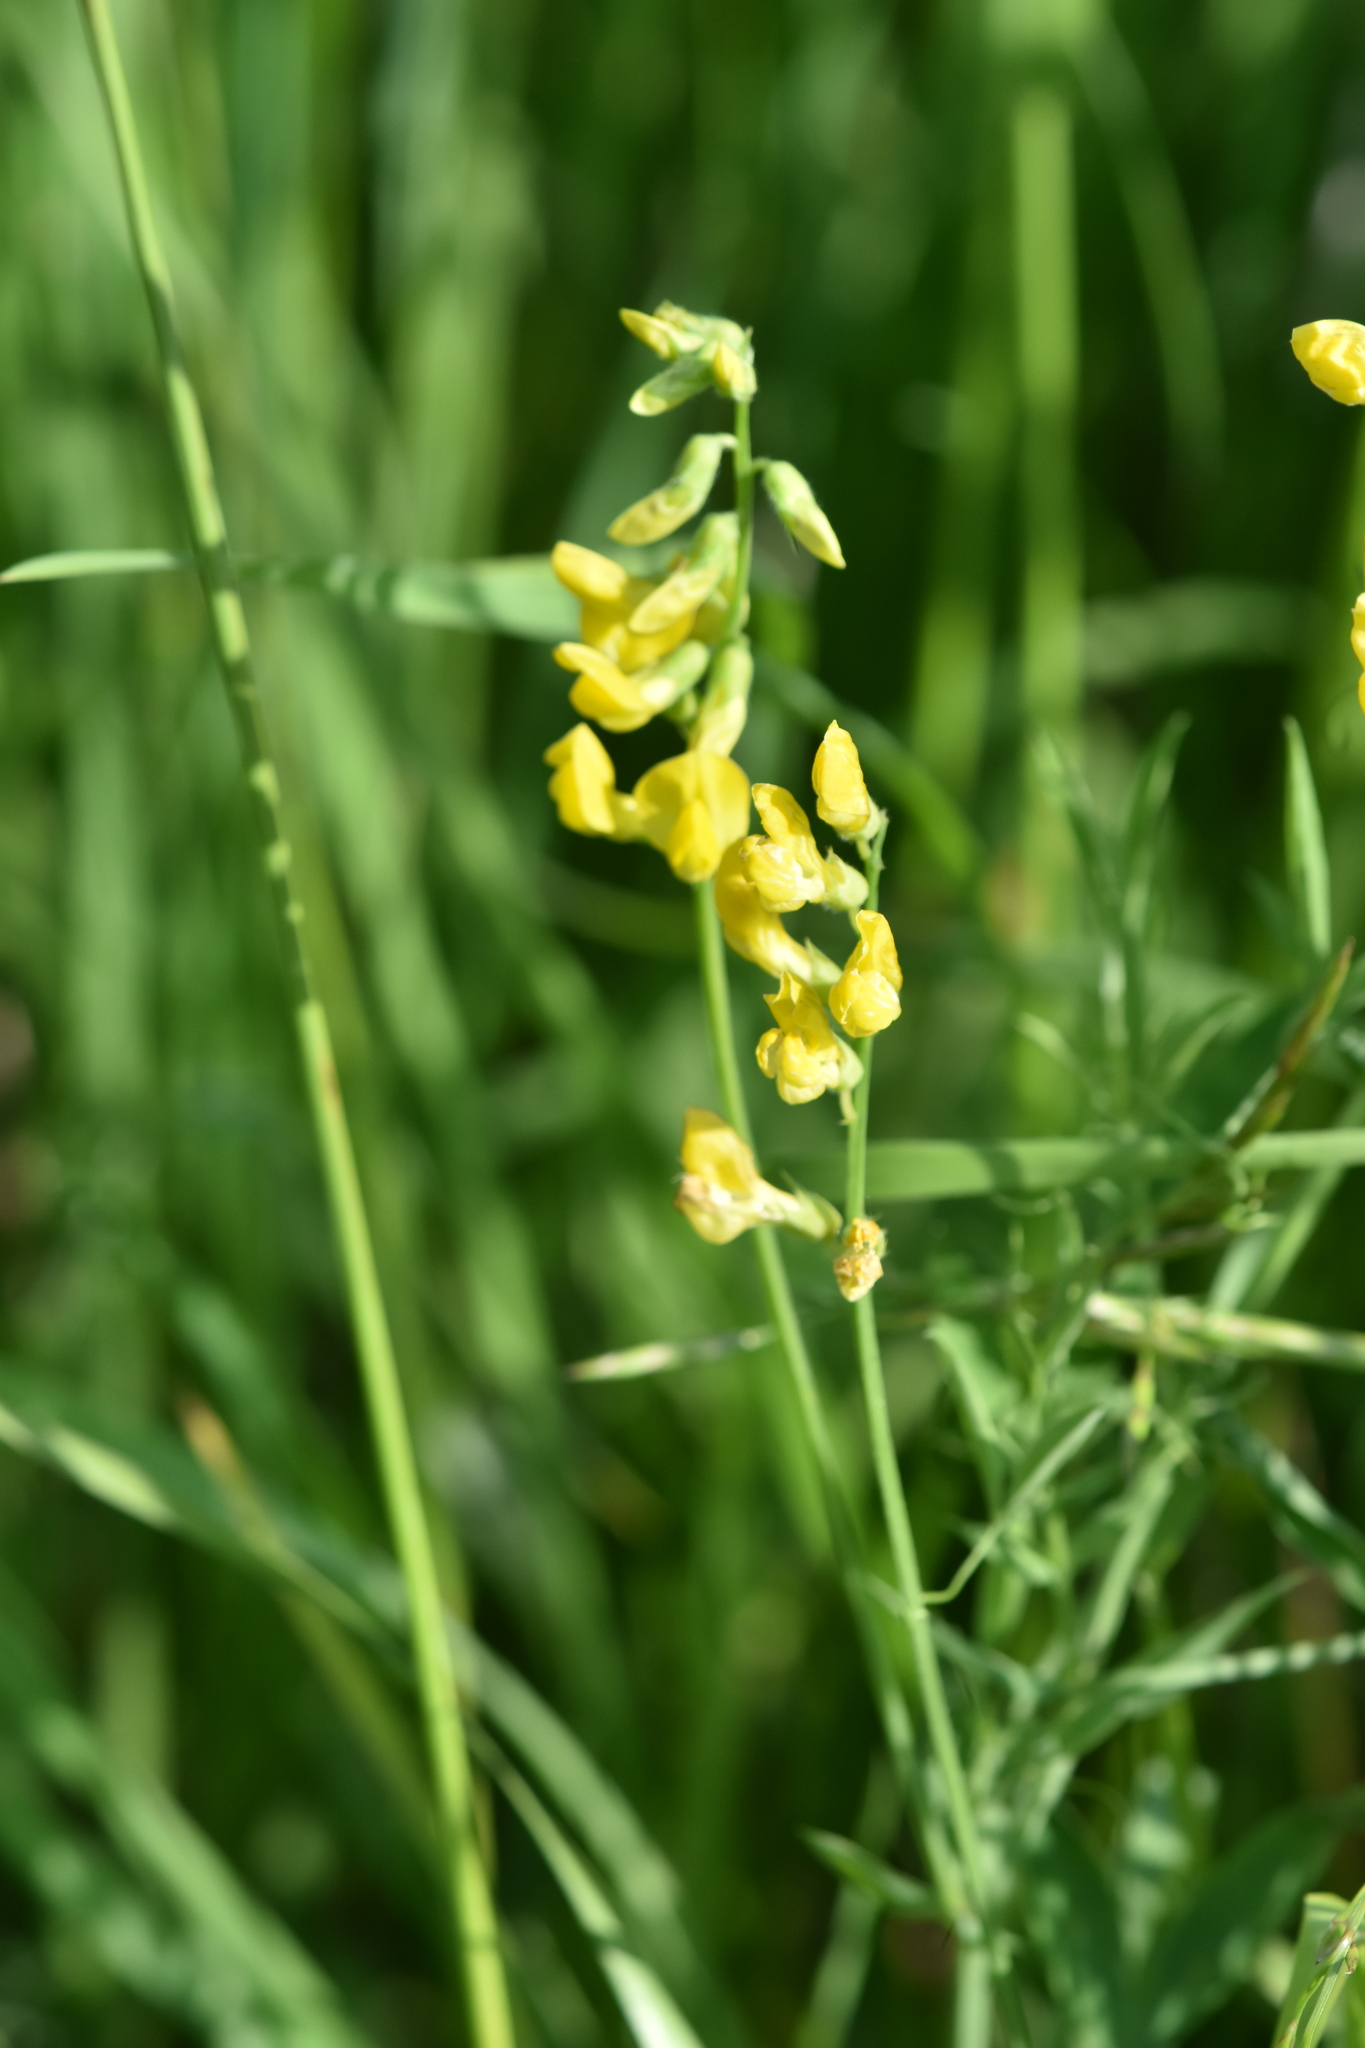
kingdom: Plantae
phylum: Tracheophyta
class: Magnoliopsida
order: Fabales
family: Fabaceae
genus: Lathyrus
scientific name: Lathyrus pratensis
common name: Meadow vetchling
